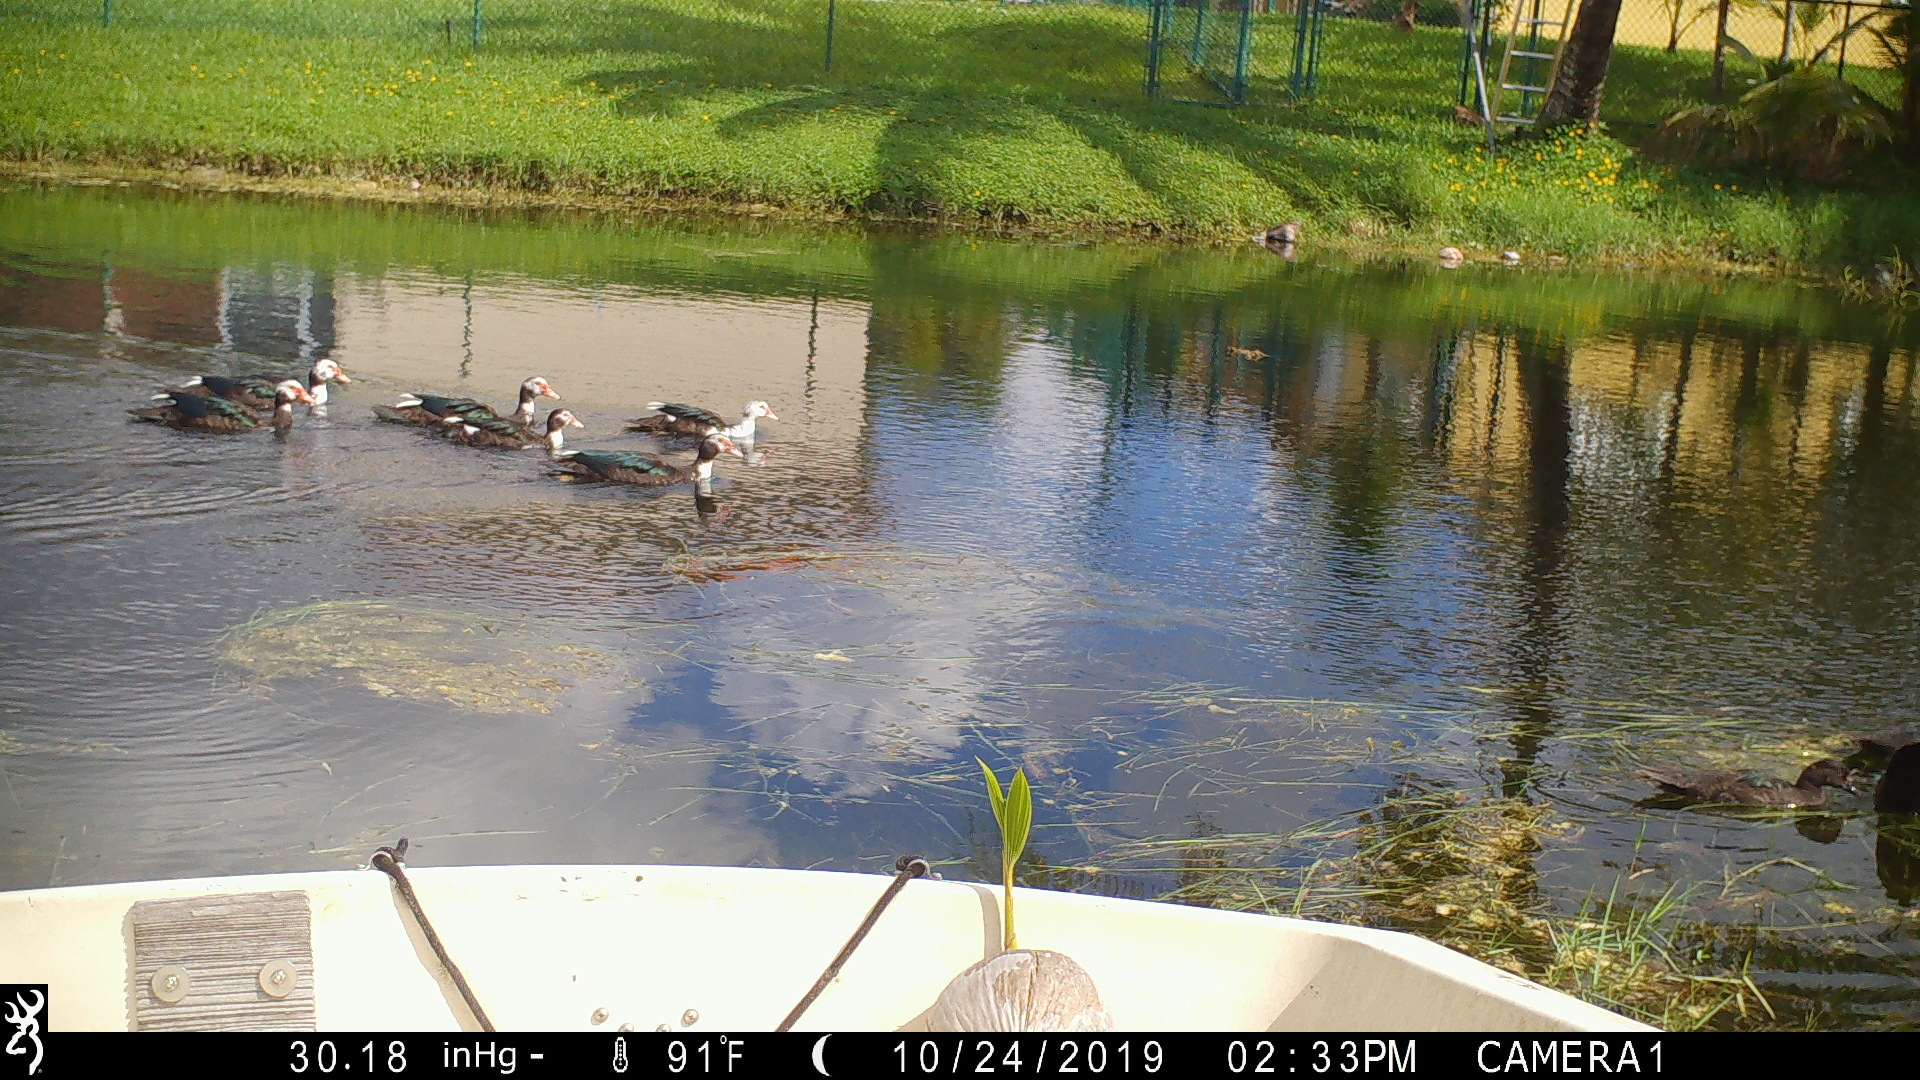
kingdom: Animalia
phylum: Chordata
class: Aves
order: Anseriformes
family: Anatidae
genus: Cairina
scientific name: Cairina moschata
